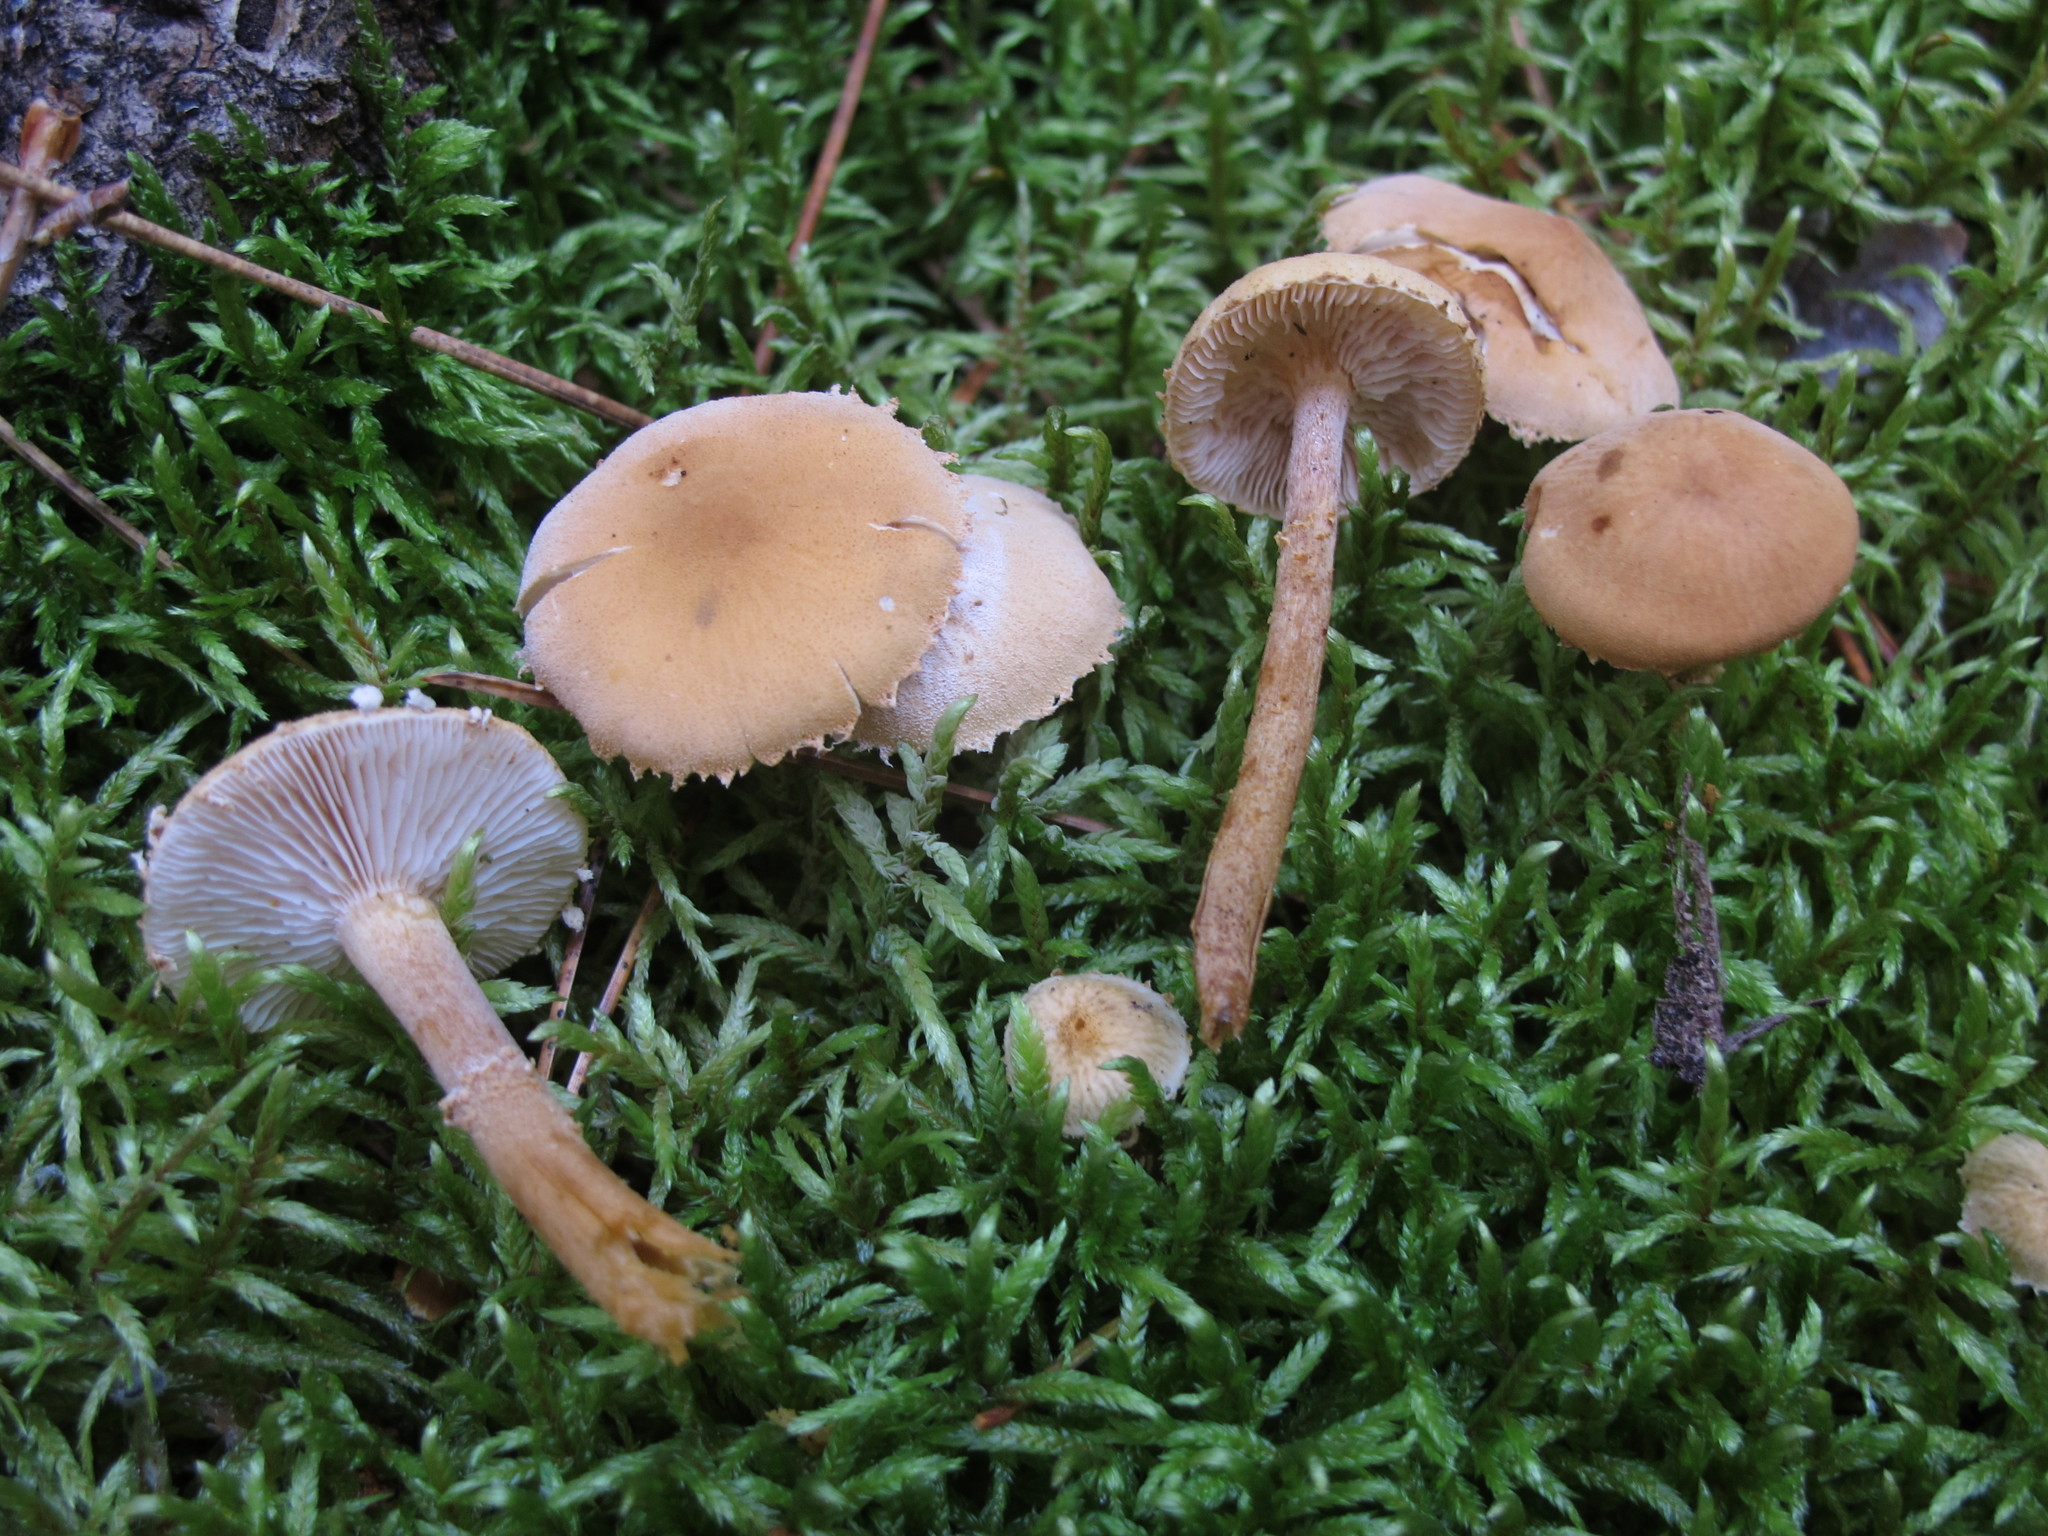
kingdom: Fungi
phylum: Basidiomycota
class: Agaricomycetes
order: Agaricales
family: Tricholomataceae
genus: Cystoderma
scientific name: Cystoderma amianthinum
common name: Earthy powdercap
